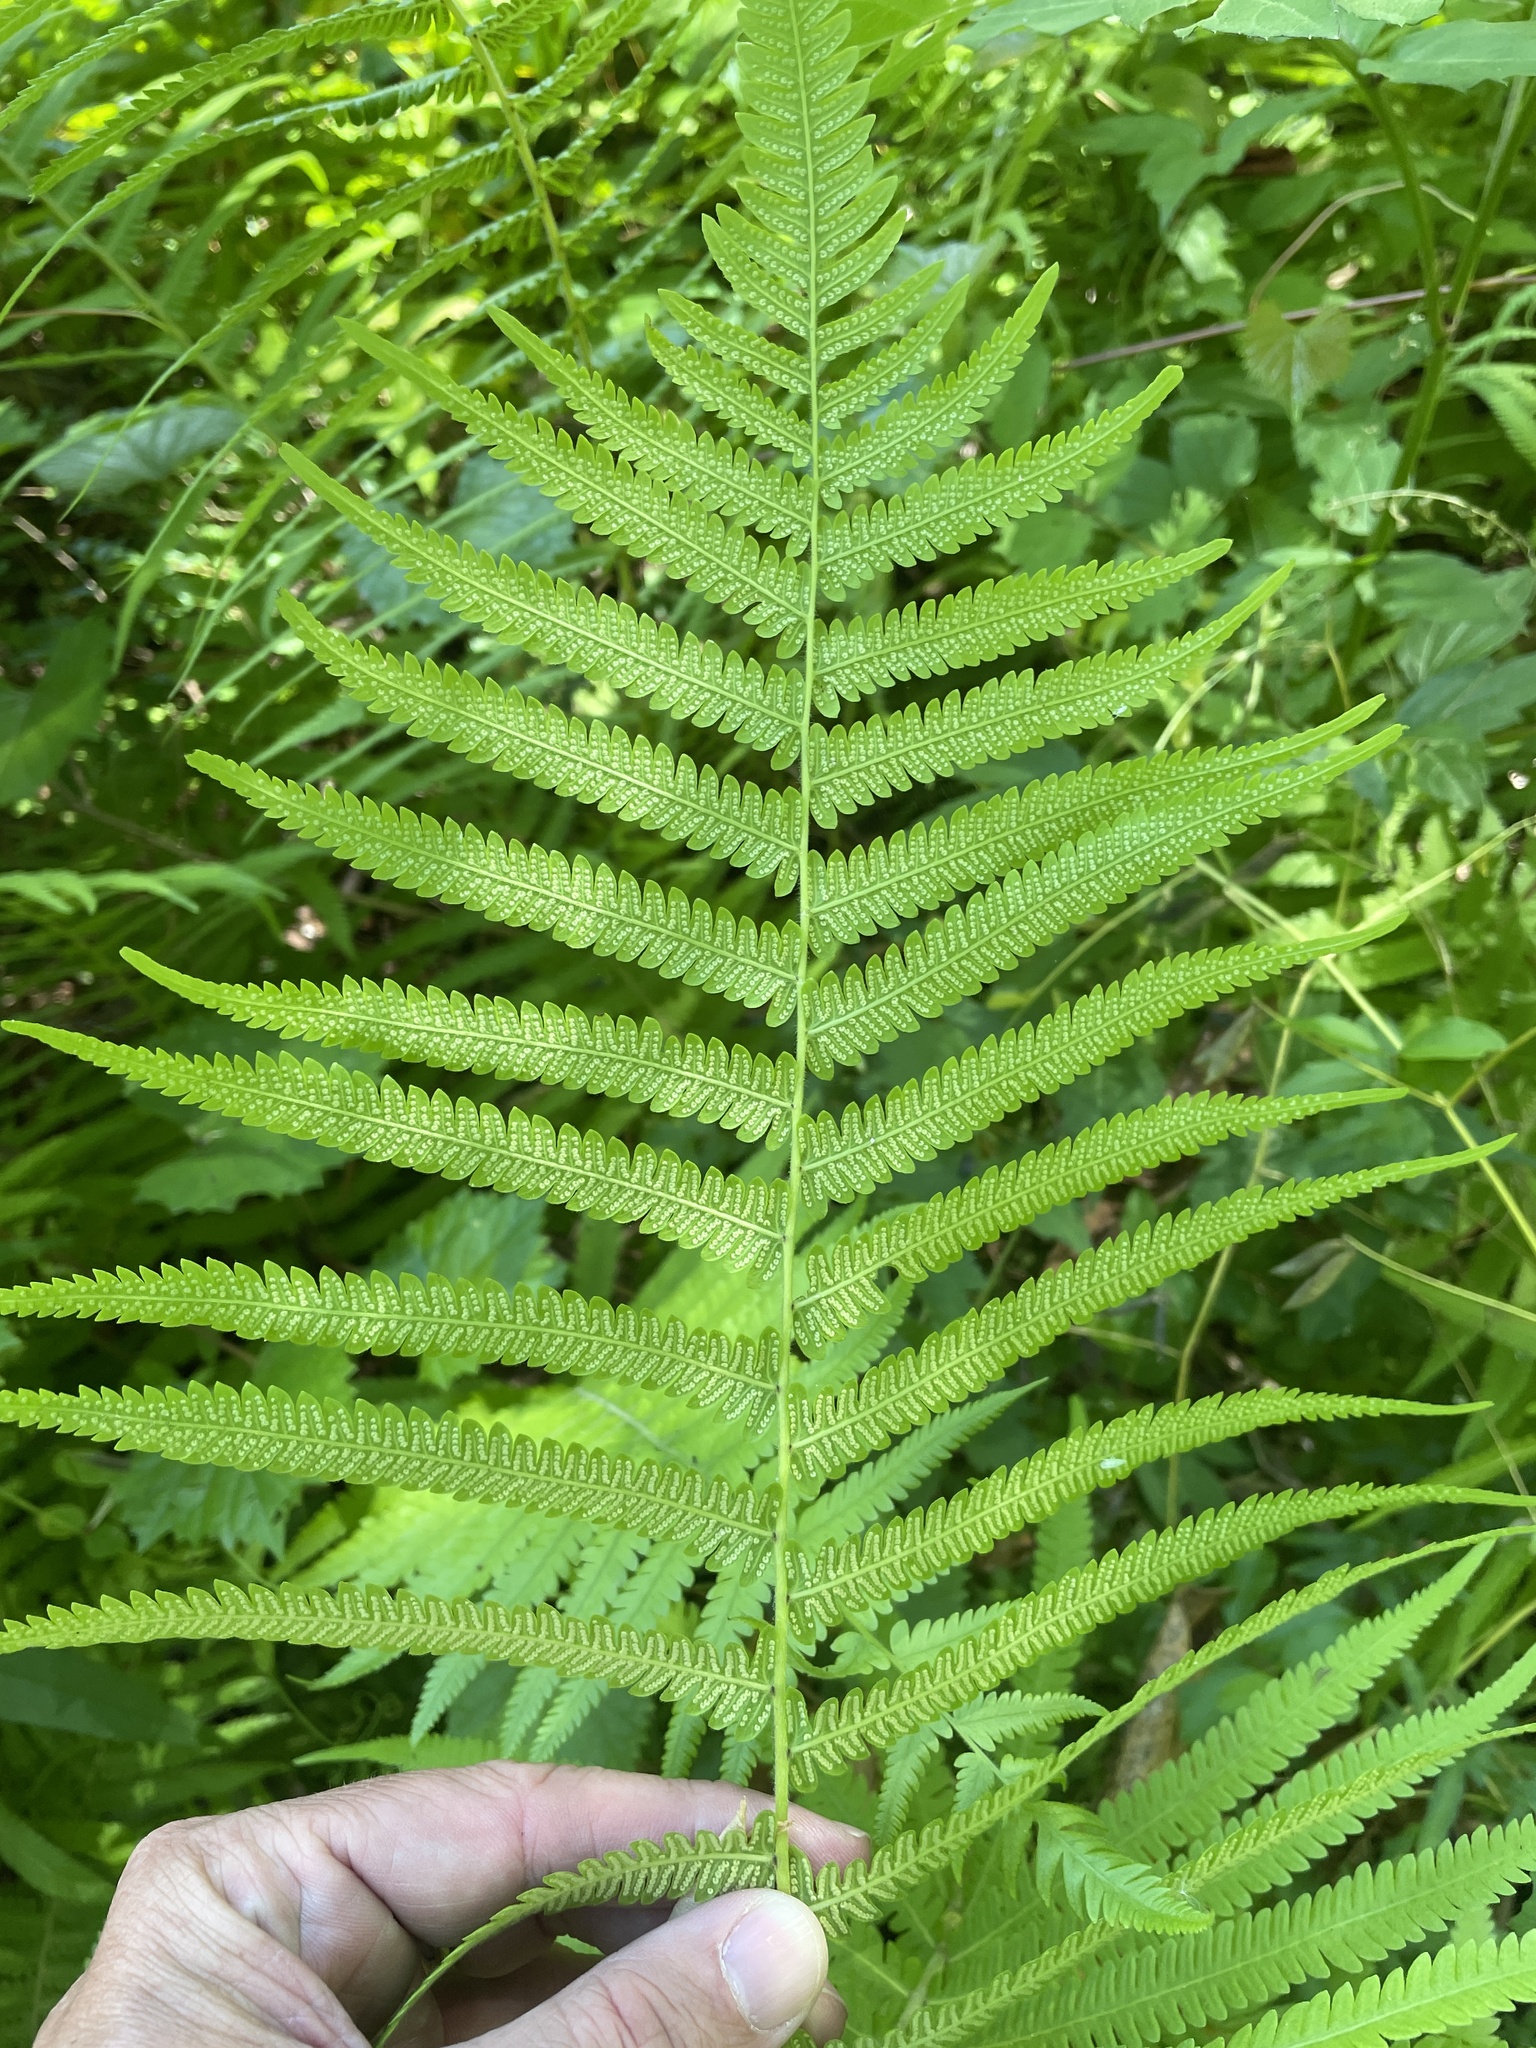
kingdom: Plantae
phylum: Tracheophyta
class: Polypodiopsida
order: Polypodiales
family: Thelypteridaceae
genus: Pelazoneuron
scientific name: Pelazoneuron kunthii
